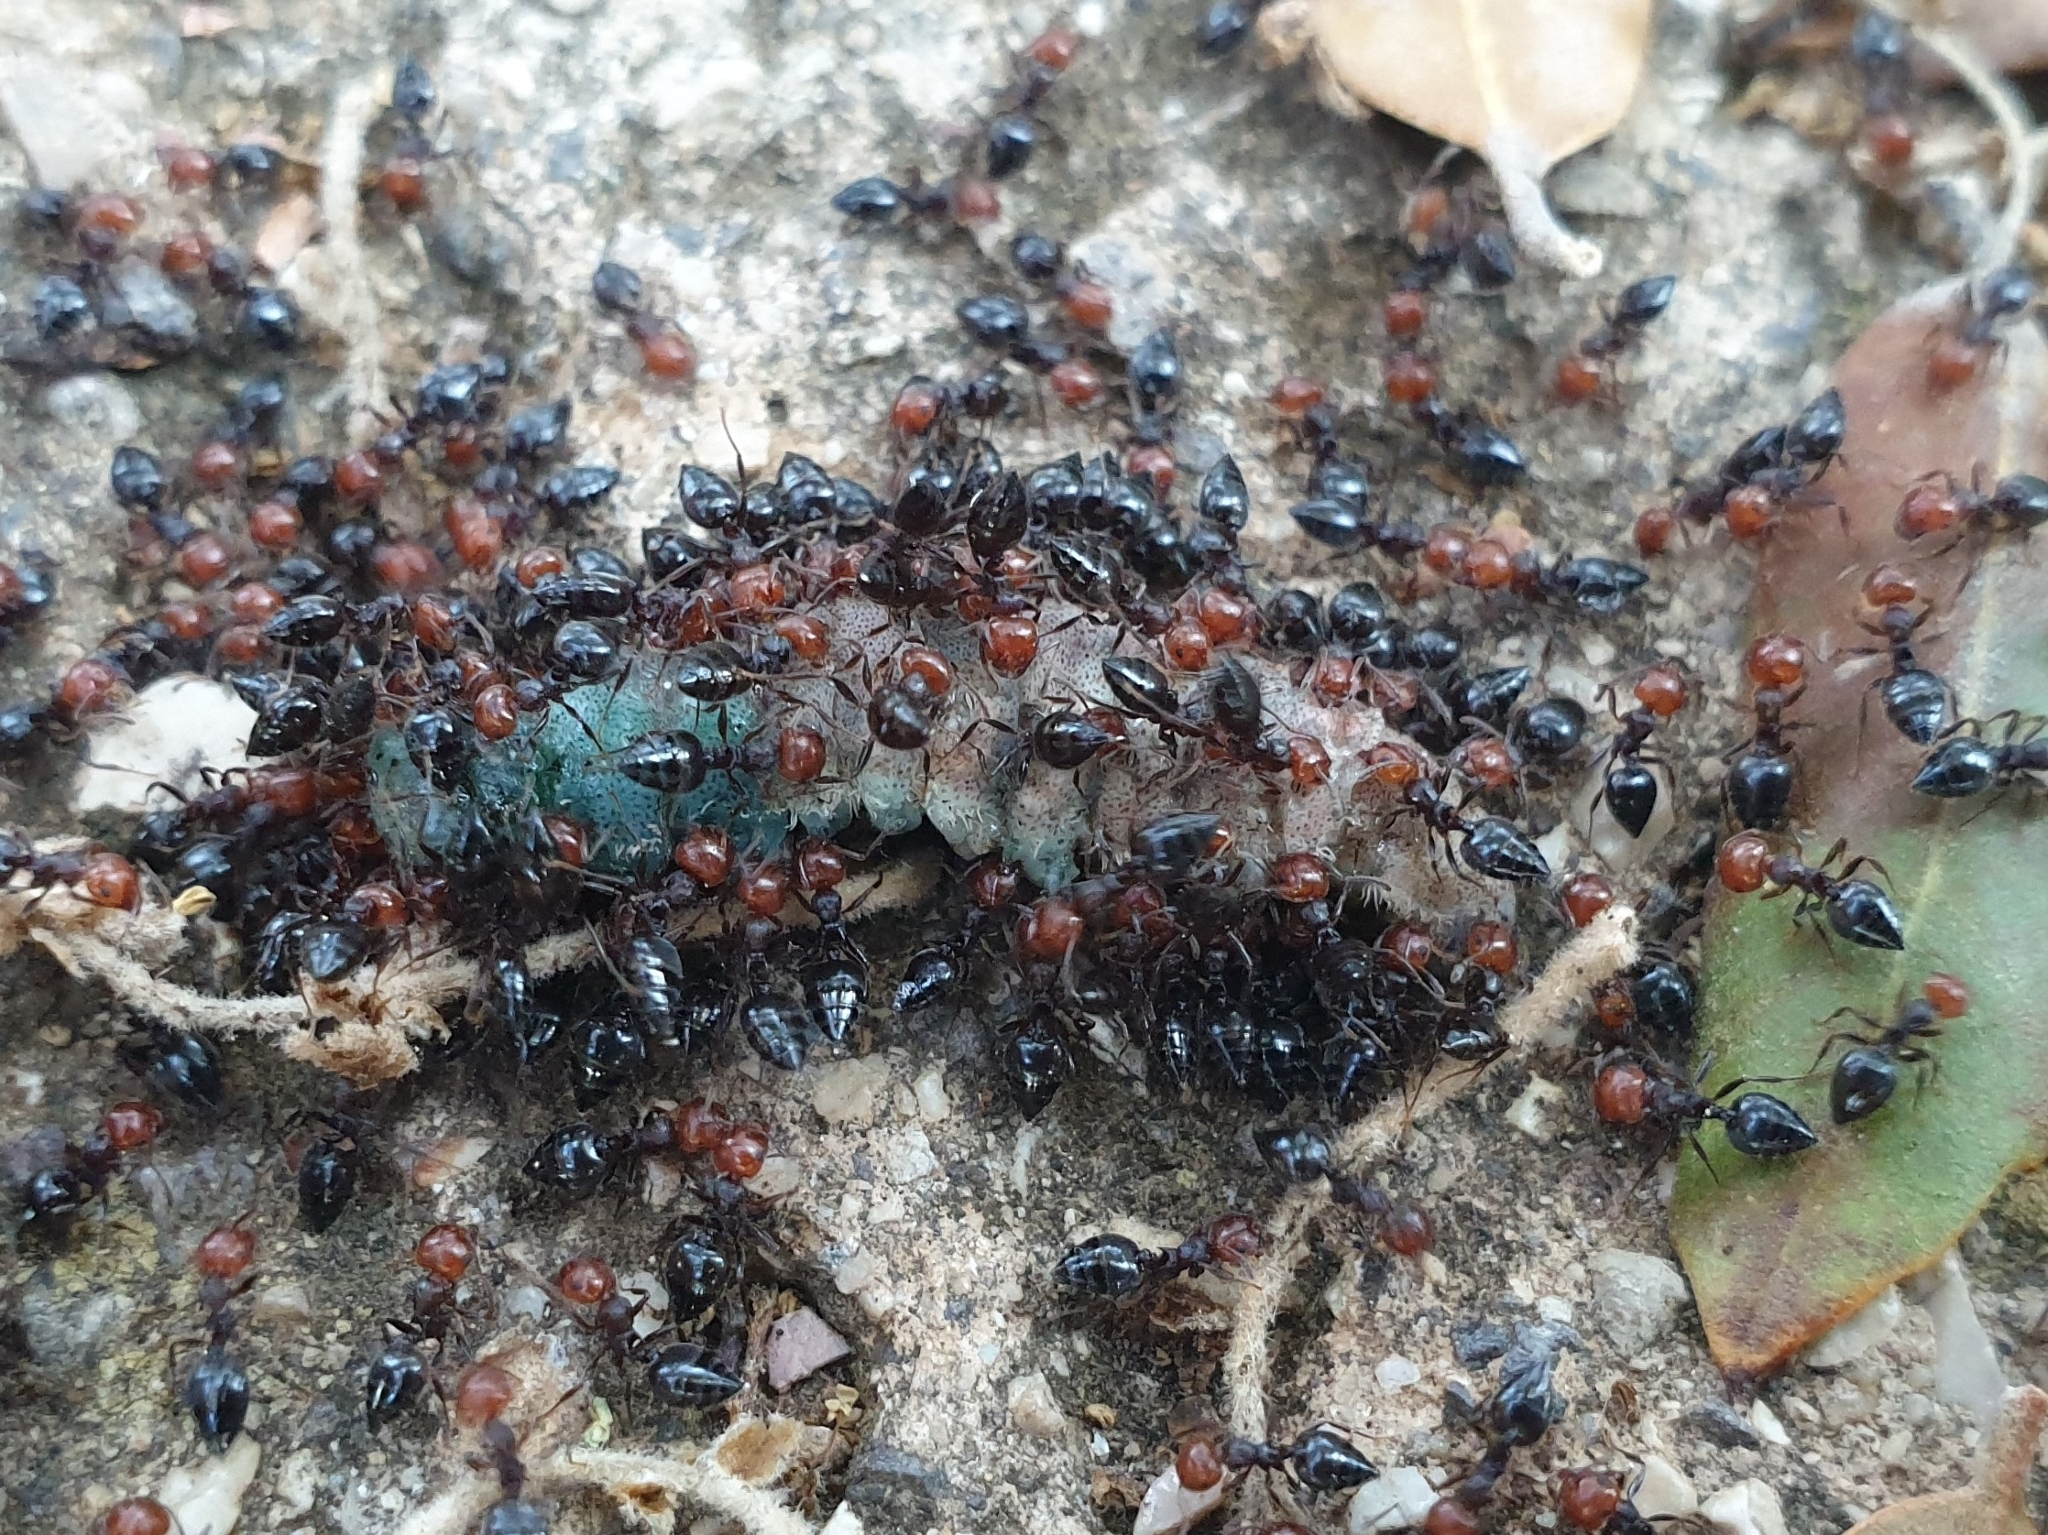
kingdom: Animalia
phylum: Arthropoda
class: Insecta
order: Hymenoptera
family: Formicidae
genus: Crematogaster
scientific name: Crematogaster scutellaris
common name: Fourmi du liège
